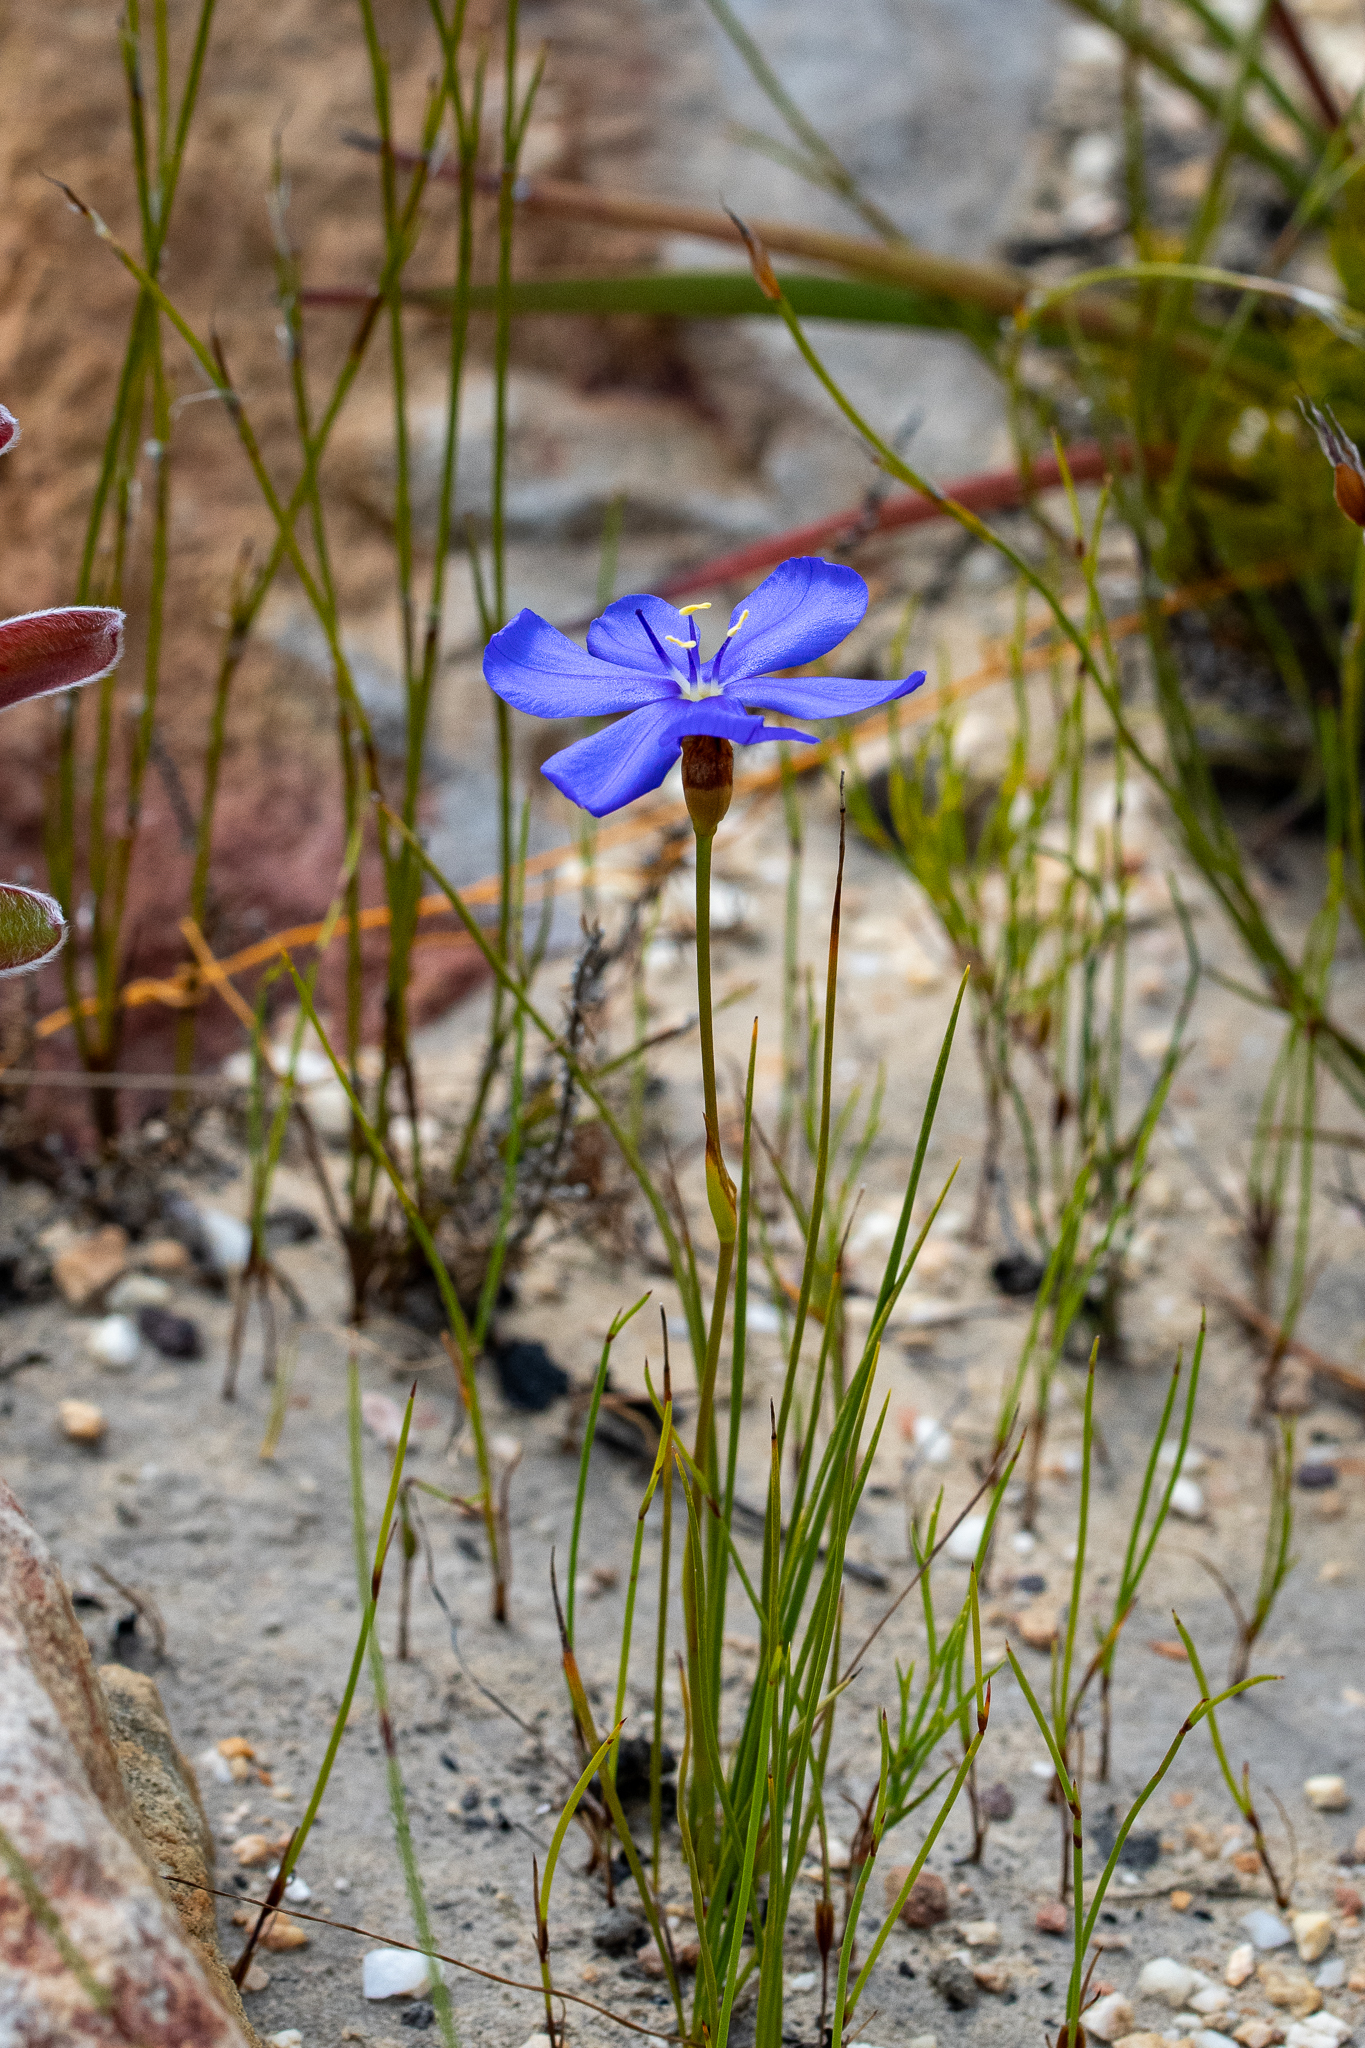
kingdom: Plantae
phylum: Tracheophyta
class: Liliopsida
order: Asparagales
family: Iridaceae
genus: Aristea
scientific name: Aristea juncifolia
